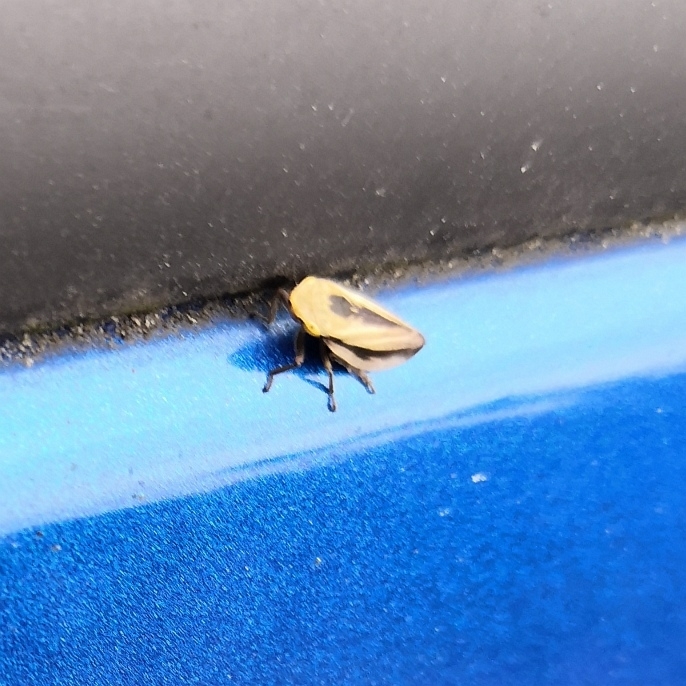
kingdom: Animalia
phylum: Arthropoda
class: Insecta
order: Hemiptera
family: Aphrophoridae
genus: Philaenus
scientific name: Philaenus spumarius
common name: Meadow spittlebug
